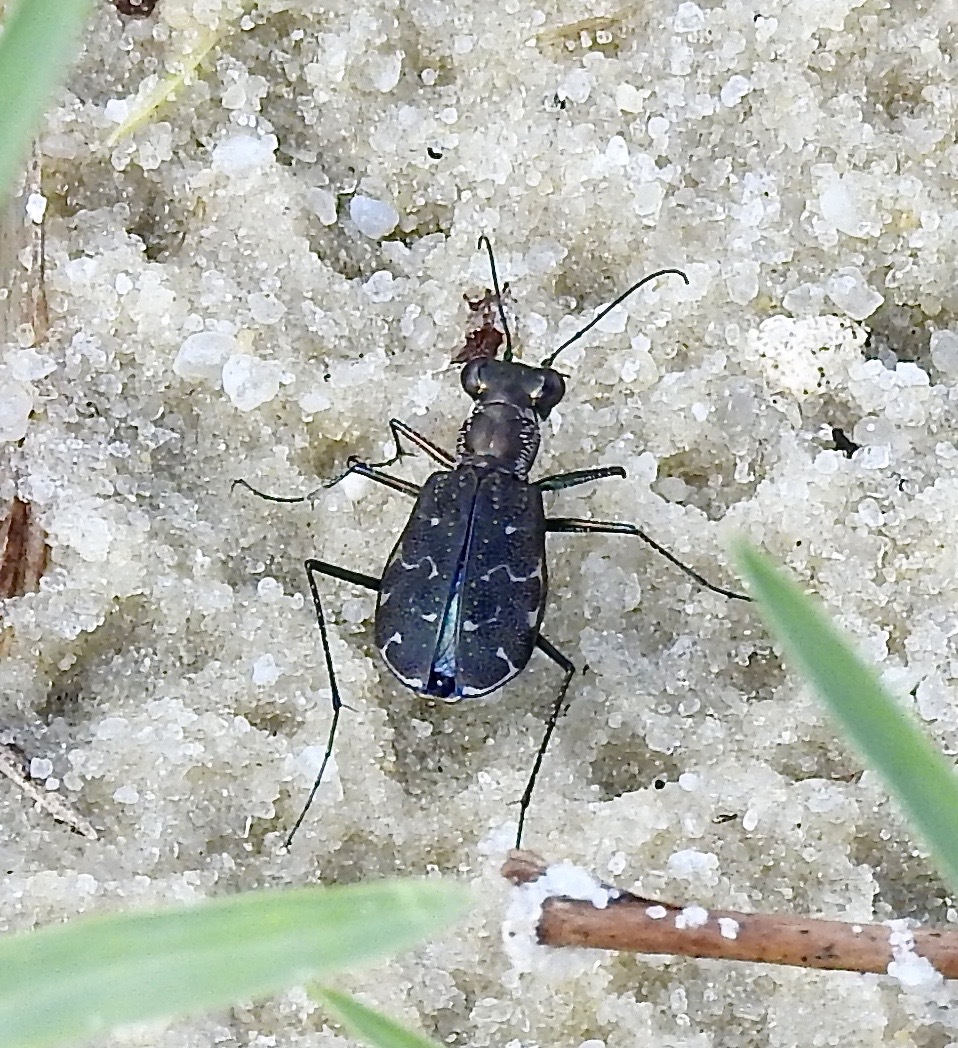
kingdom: Animalia
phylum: Arthropoda
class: Insecta
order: Coleoptera
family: Carabidae
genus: Cicindela
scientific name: Cicindela trifasciata
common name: Mudflat tiger beetle
